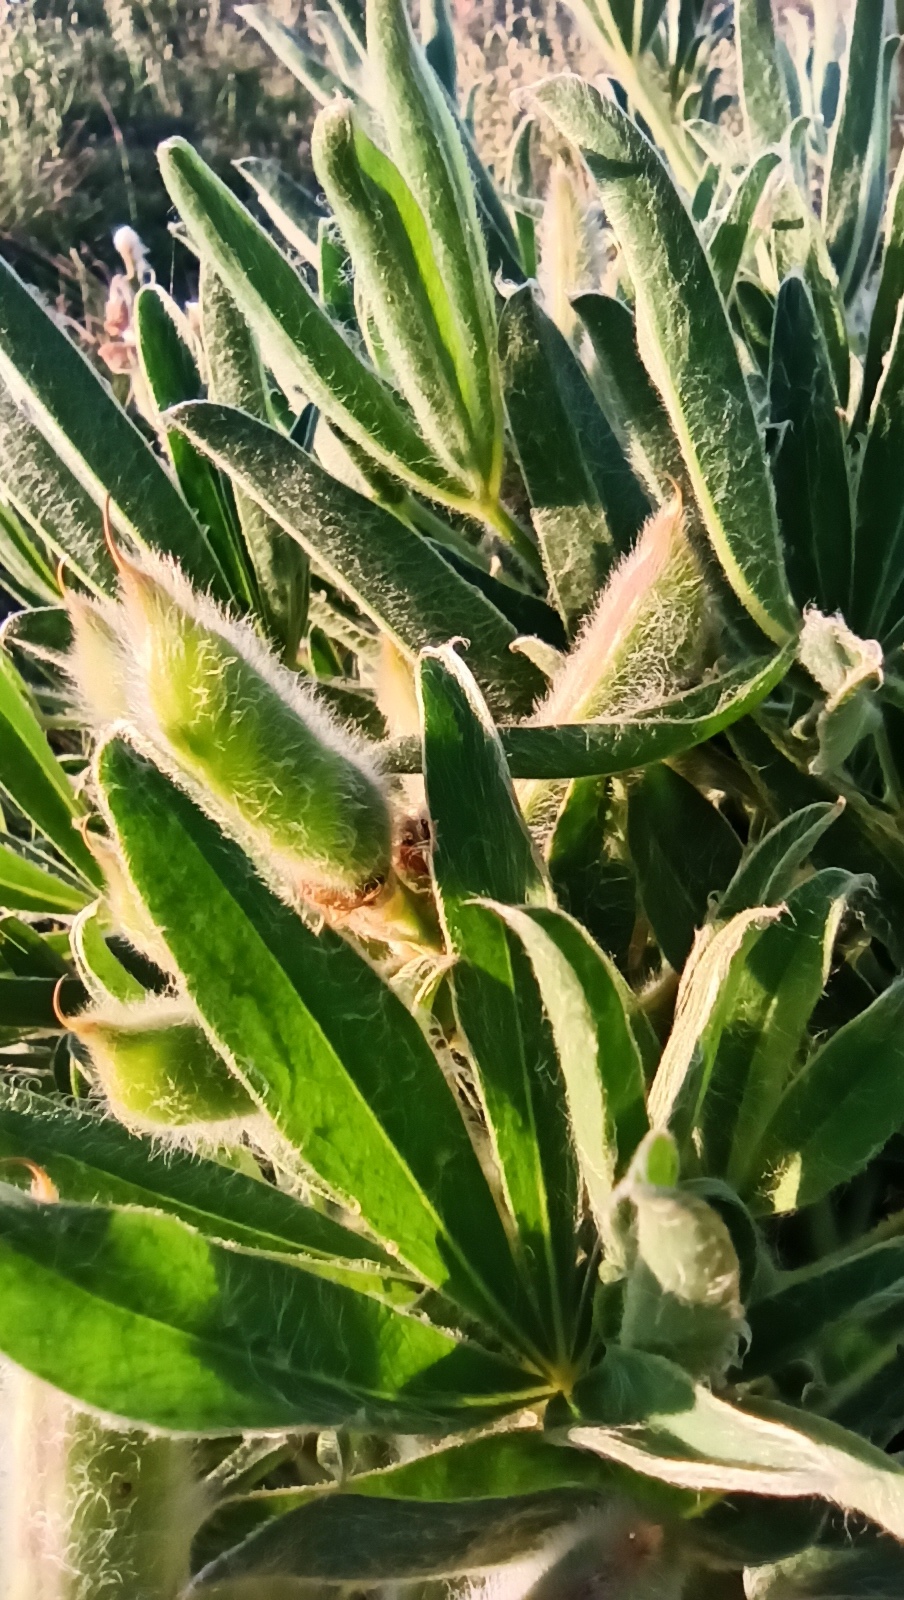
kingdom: Plantae
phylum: Tracheophyta
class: Magnoliopsida
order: Fabales
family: Fabaceae
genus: Lupinus
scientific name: Lupinus lanatus
